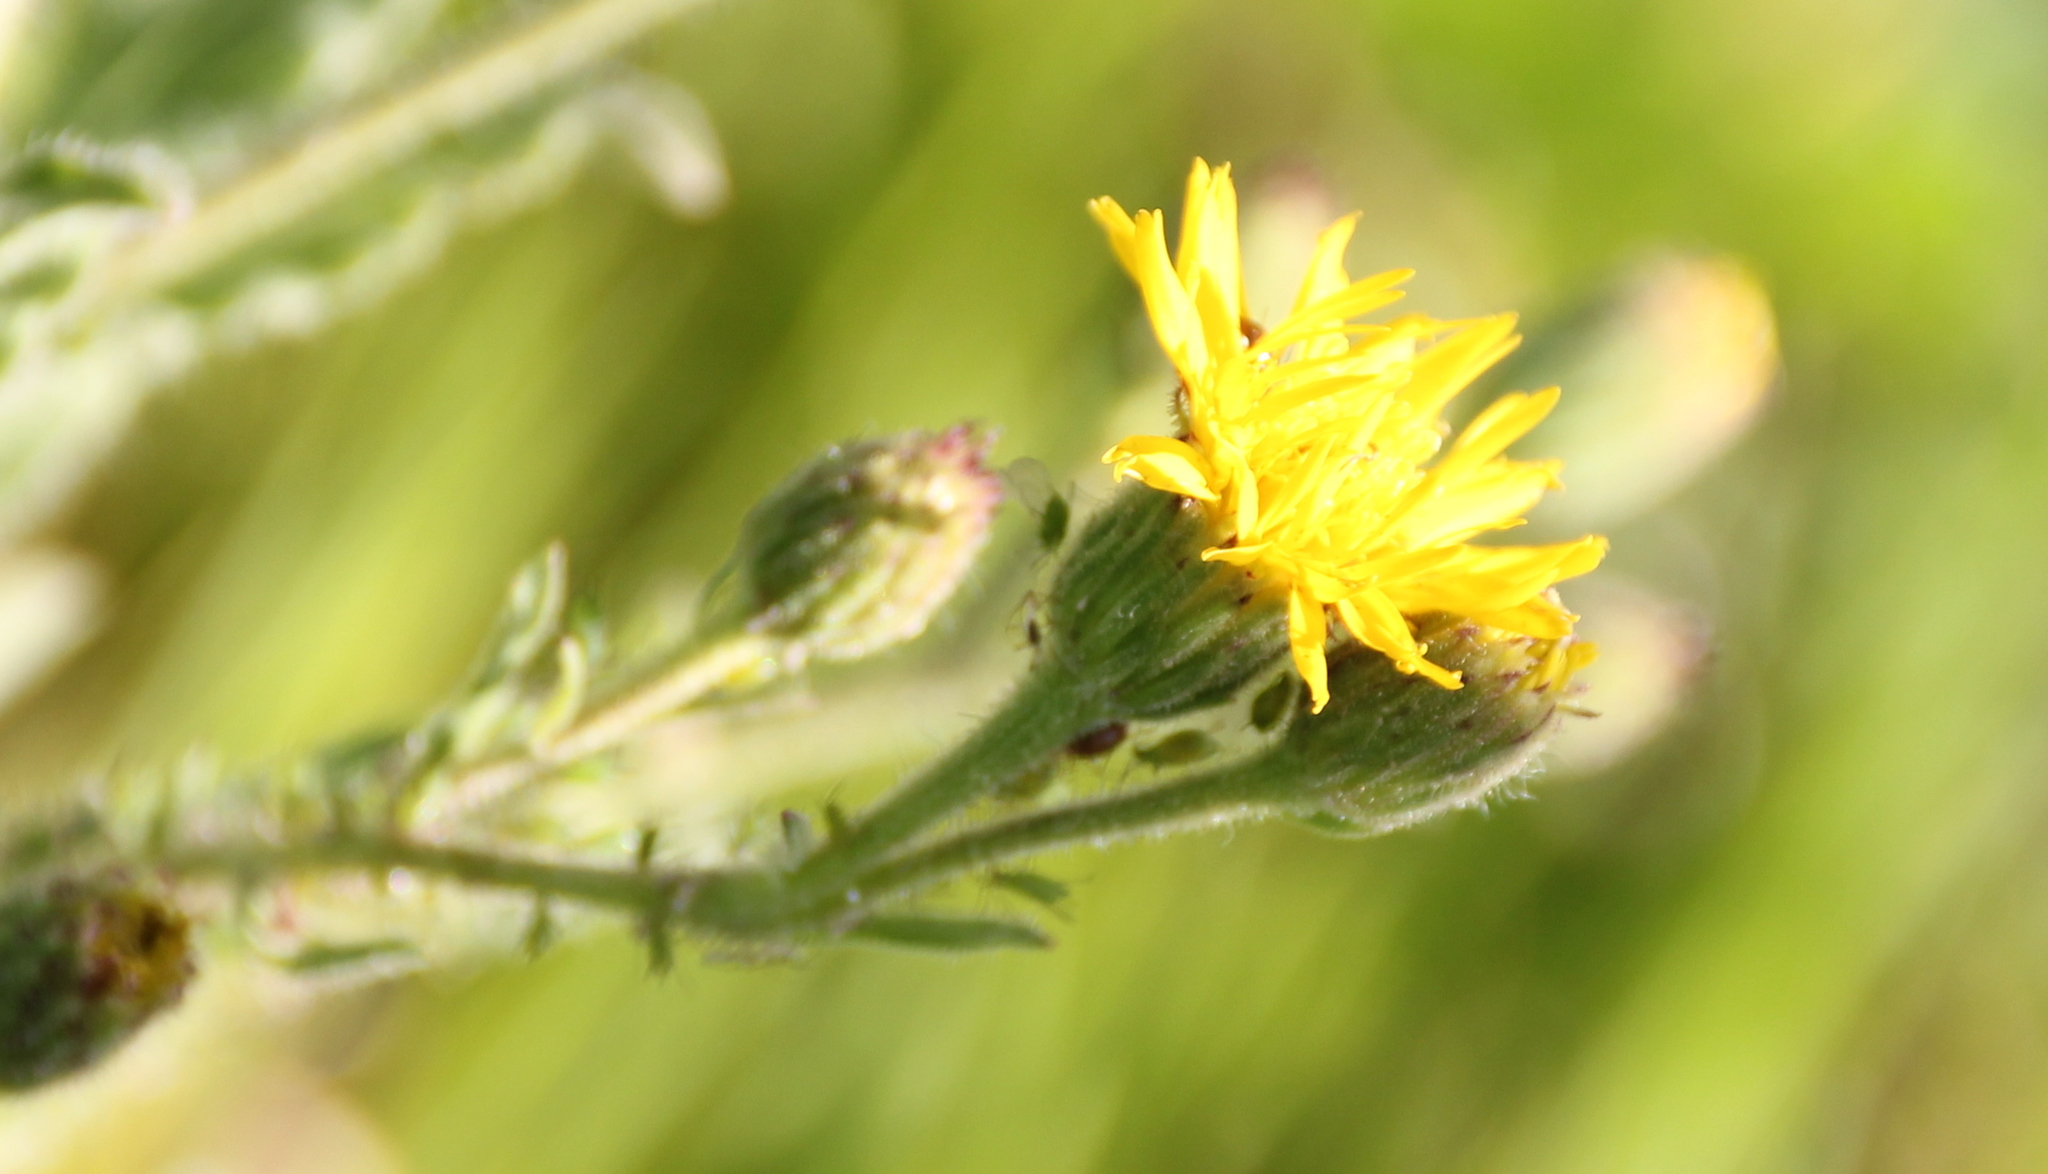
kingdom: Plantae
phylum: Tracheophyta
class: Magnoliopsida
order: Asterales
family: Asteraceae
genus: Heterotheca
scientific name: Heterotheca grandiflora
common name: Telegraphweed
